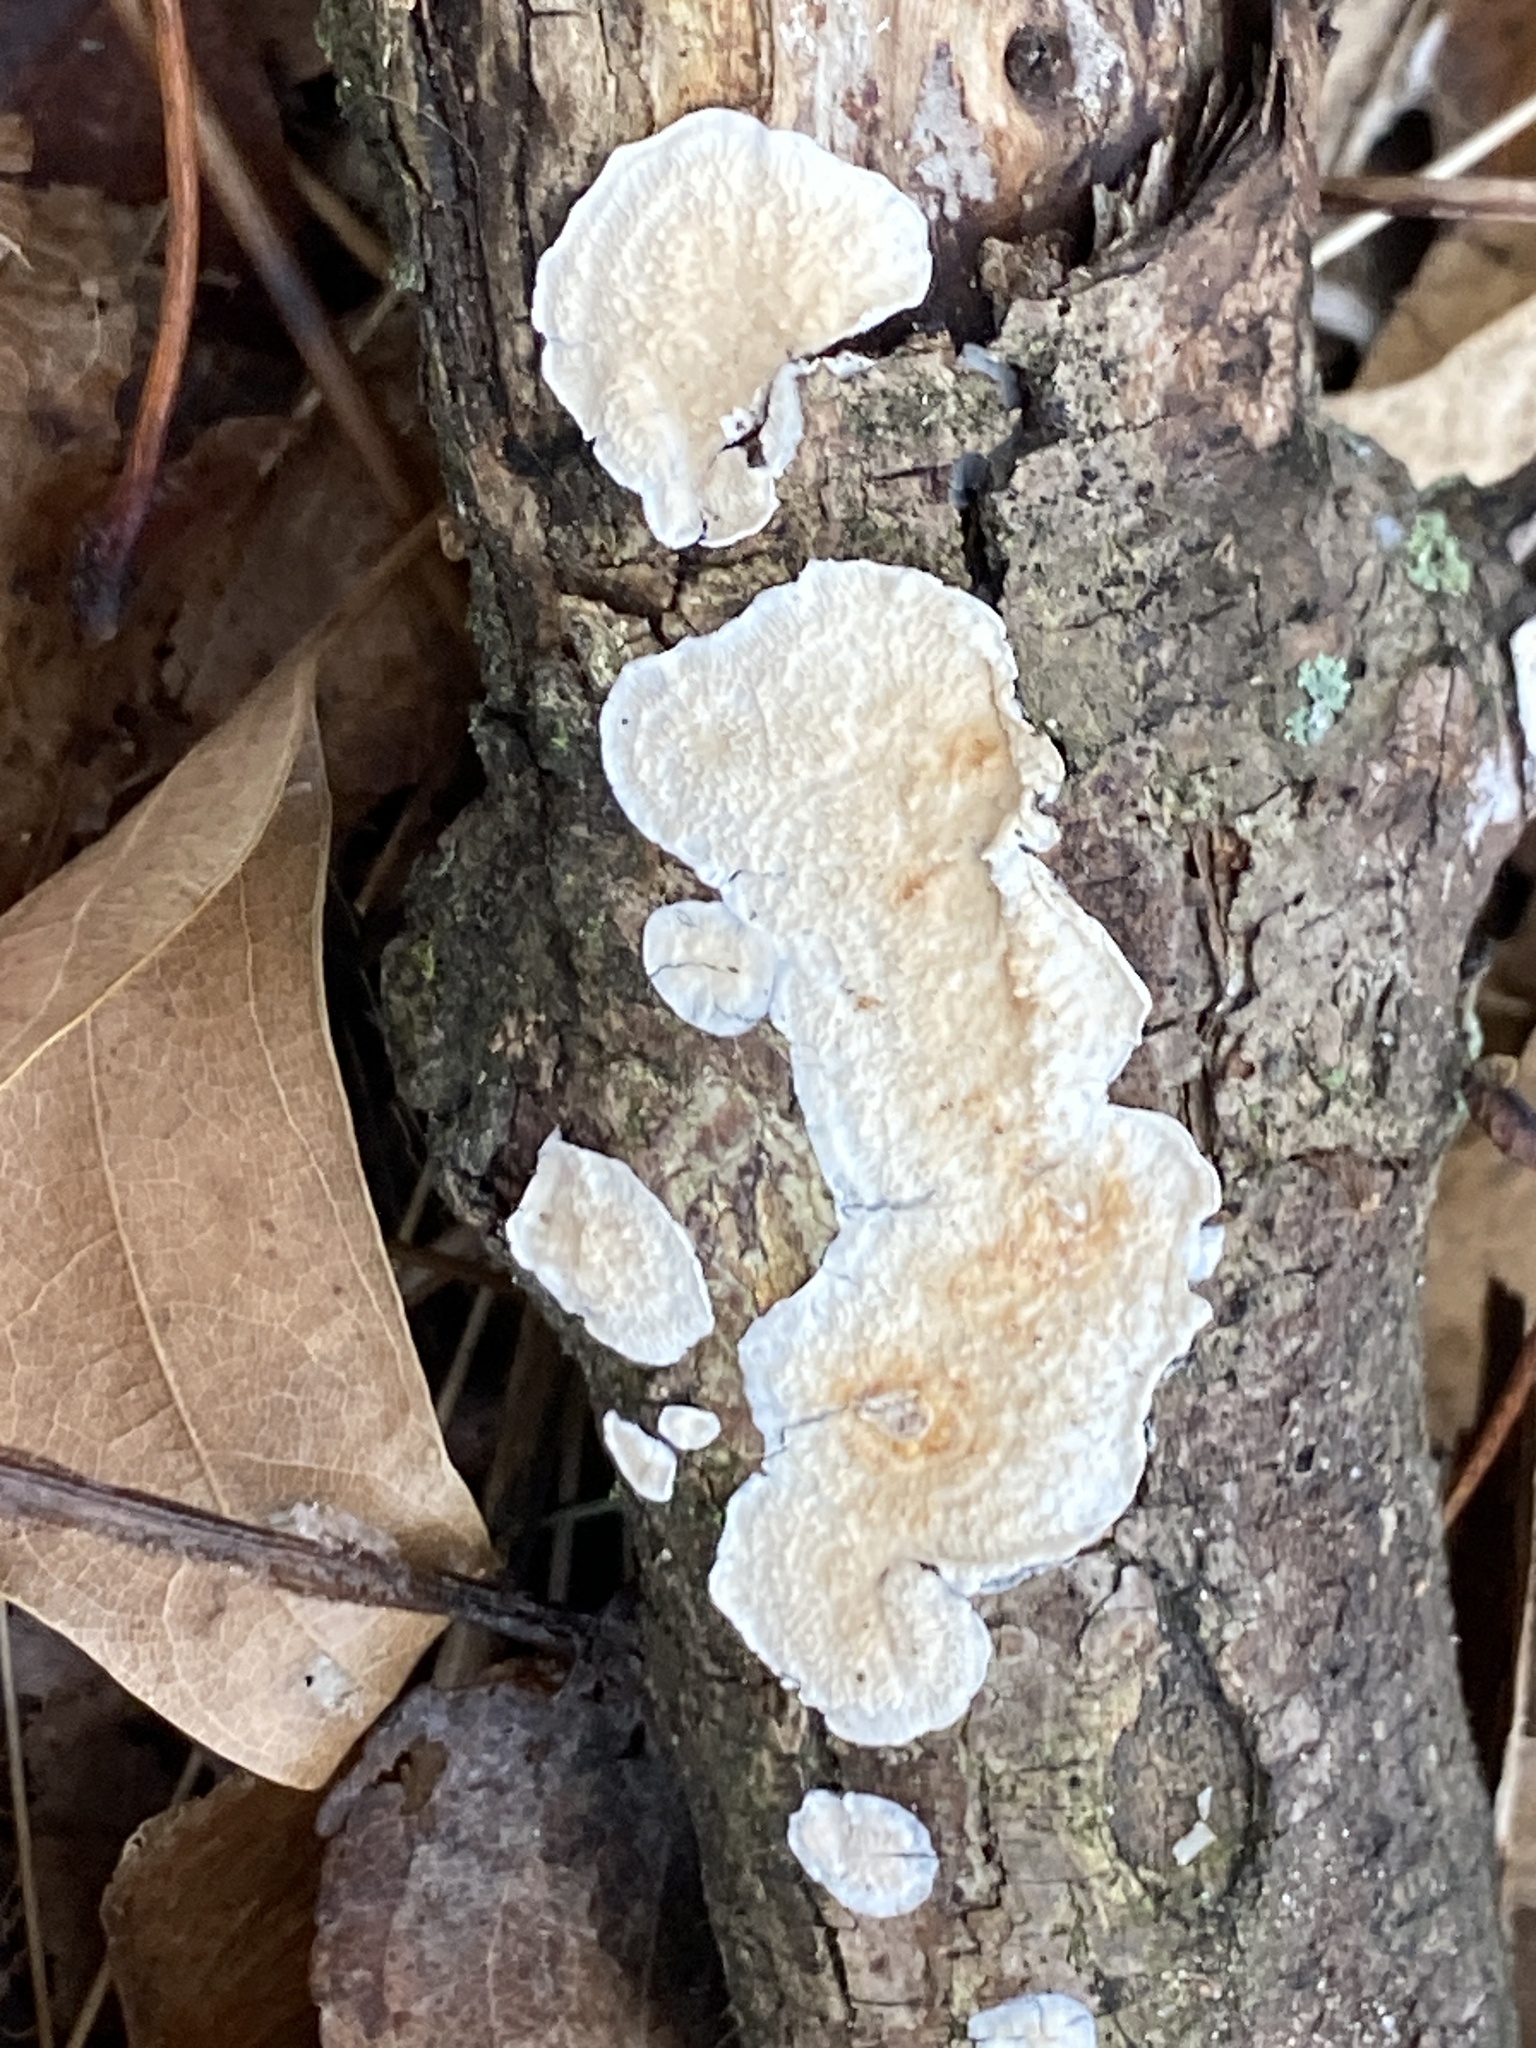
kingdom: Fungi
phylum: Basidiomycota
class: Agaricomycetes
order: Polyporales
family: Irpicaceae
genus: Byssomerulius
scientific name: Byssomerulius corium
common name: Netted crust
